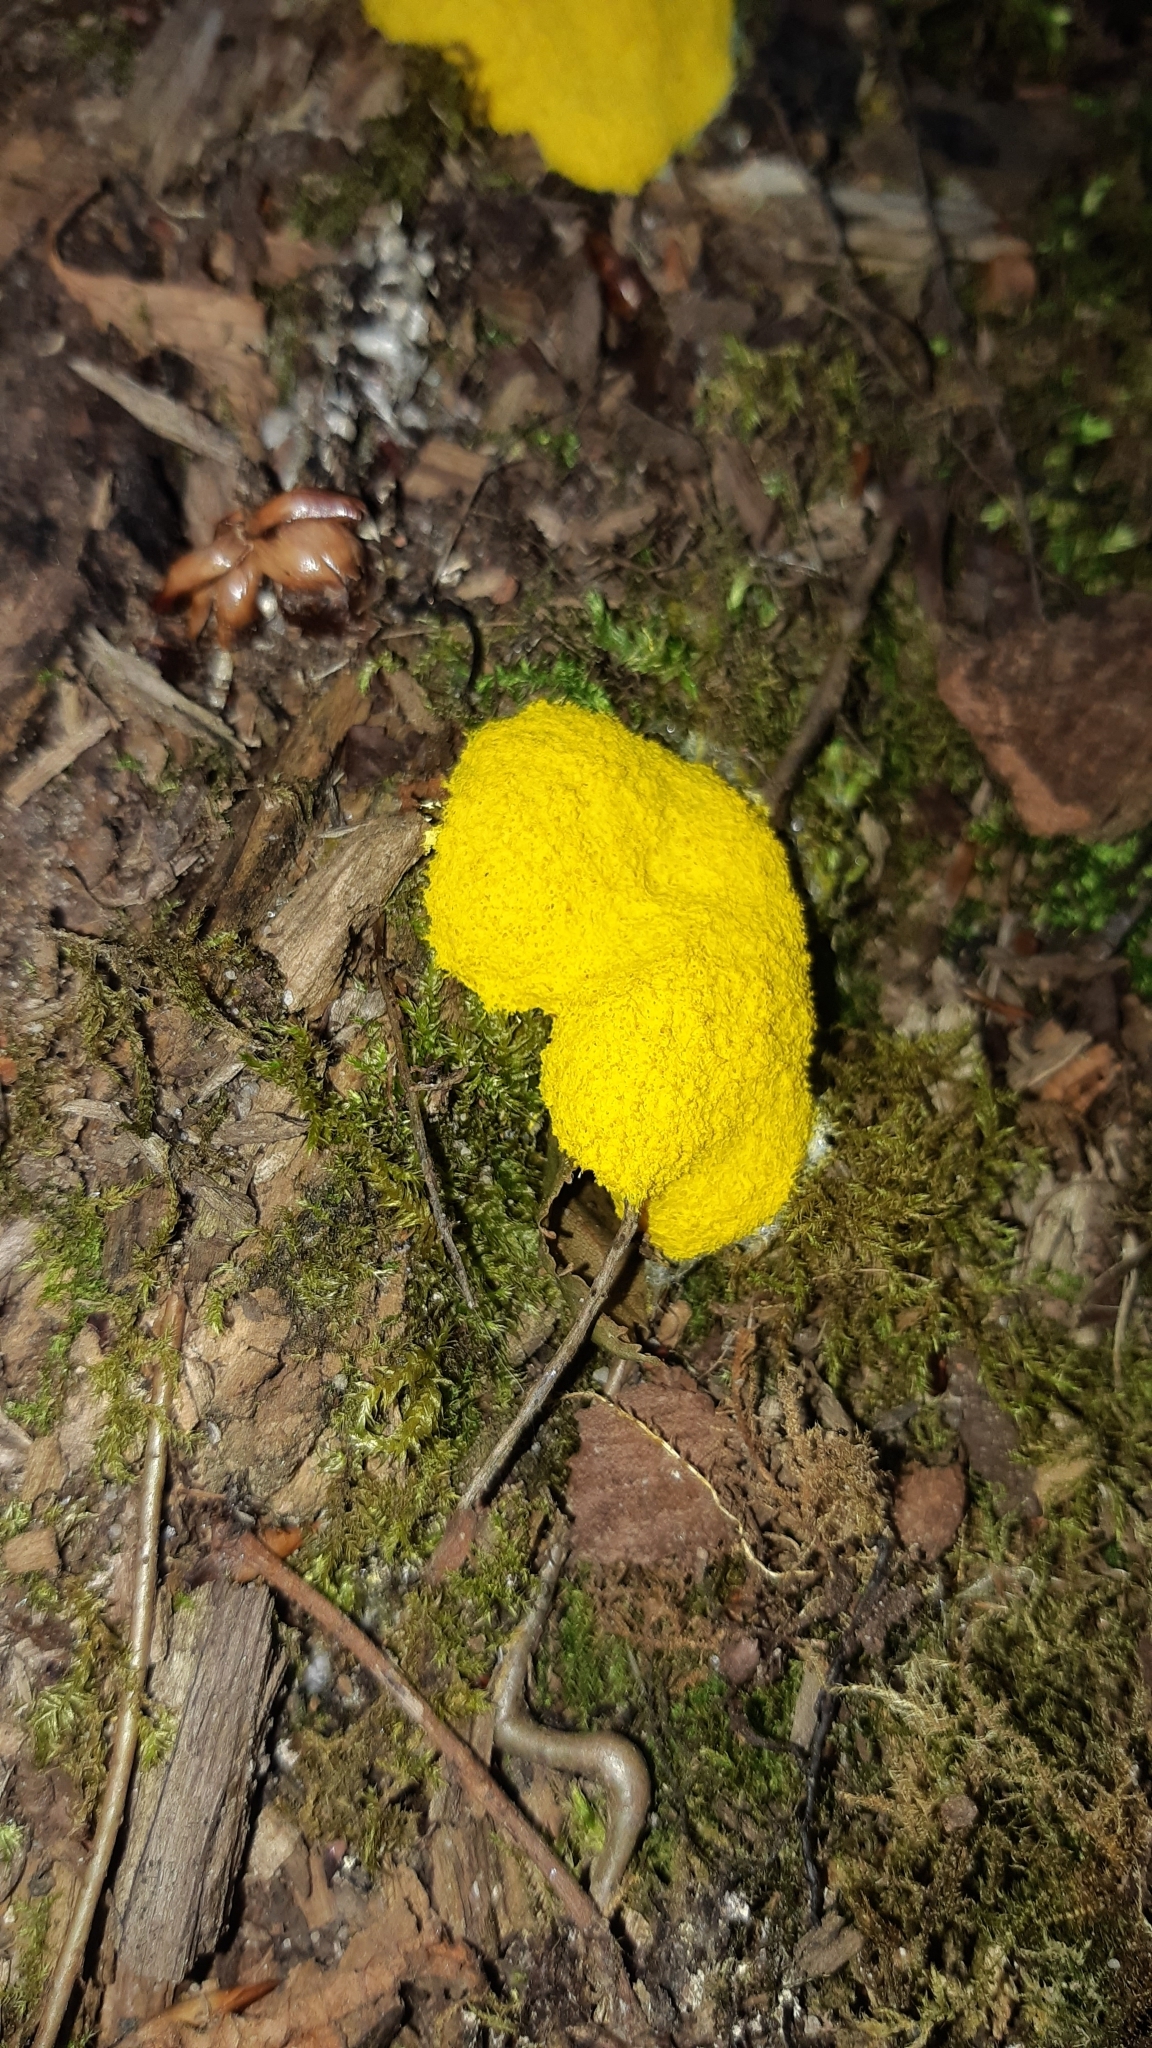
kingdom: Protozoa
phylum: Mycetozoa
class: Myxomycetes
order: Physarales
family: Physaraceae
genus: Fuligo
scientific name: Fuligo septica
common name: Dog vomit slime mold
